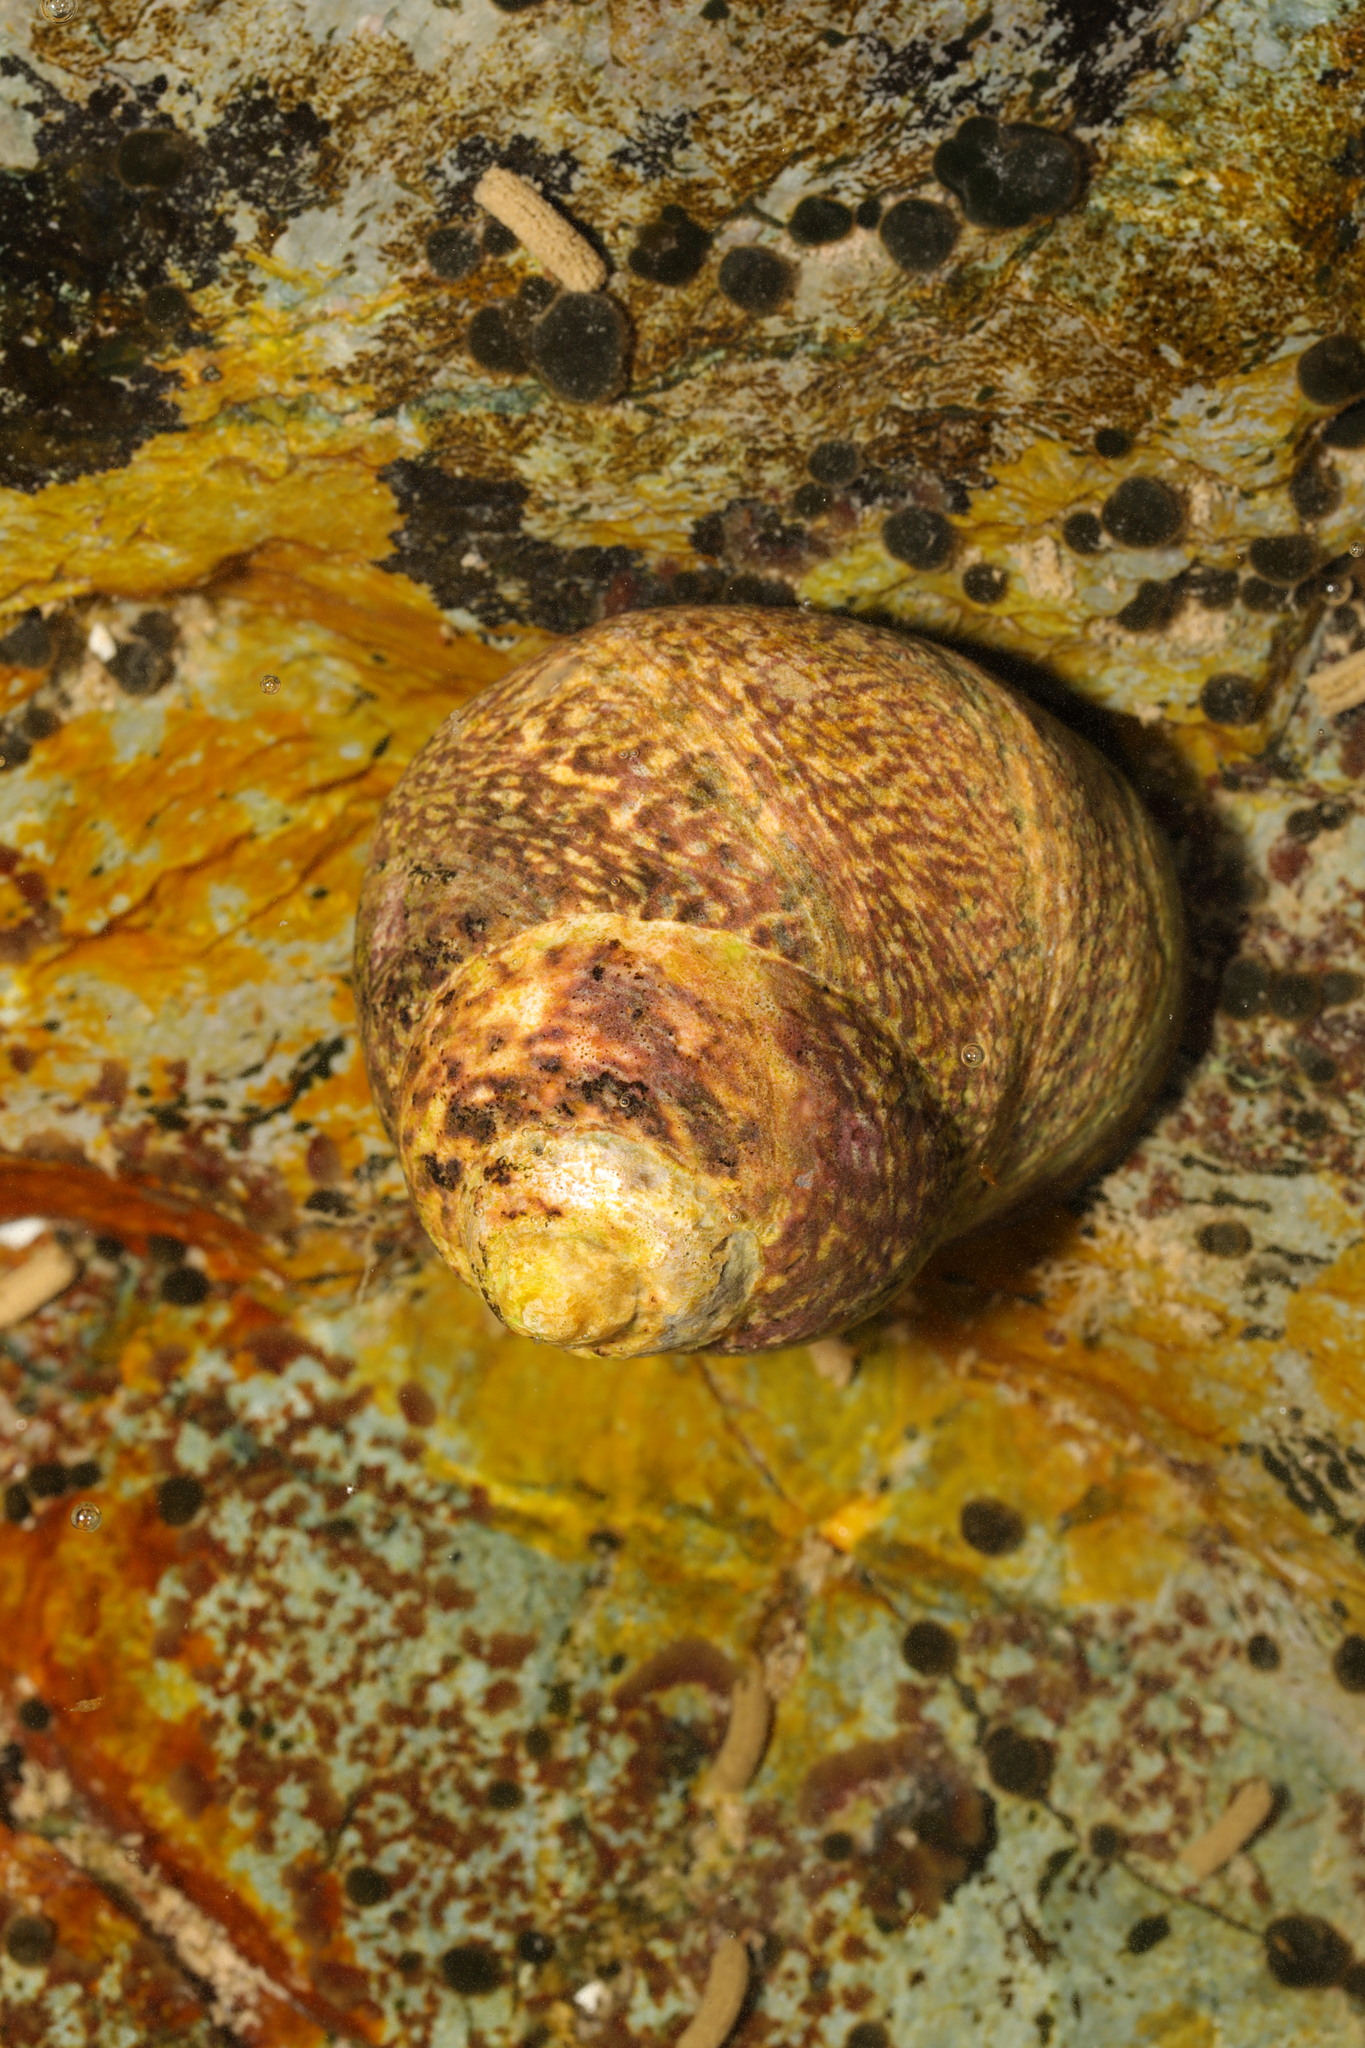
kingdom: Animalia
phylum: Mollusca
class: Gastropoda
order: Trochida
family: Trochidae
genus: Phorcus
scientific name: Phorcus lineatus
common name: Toothed top shell
